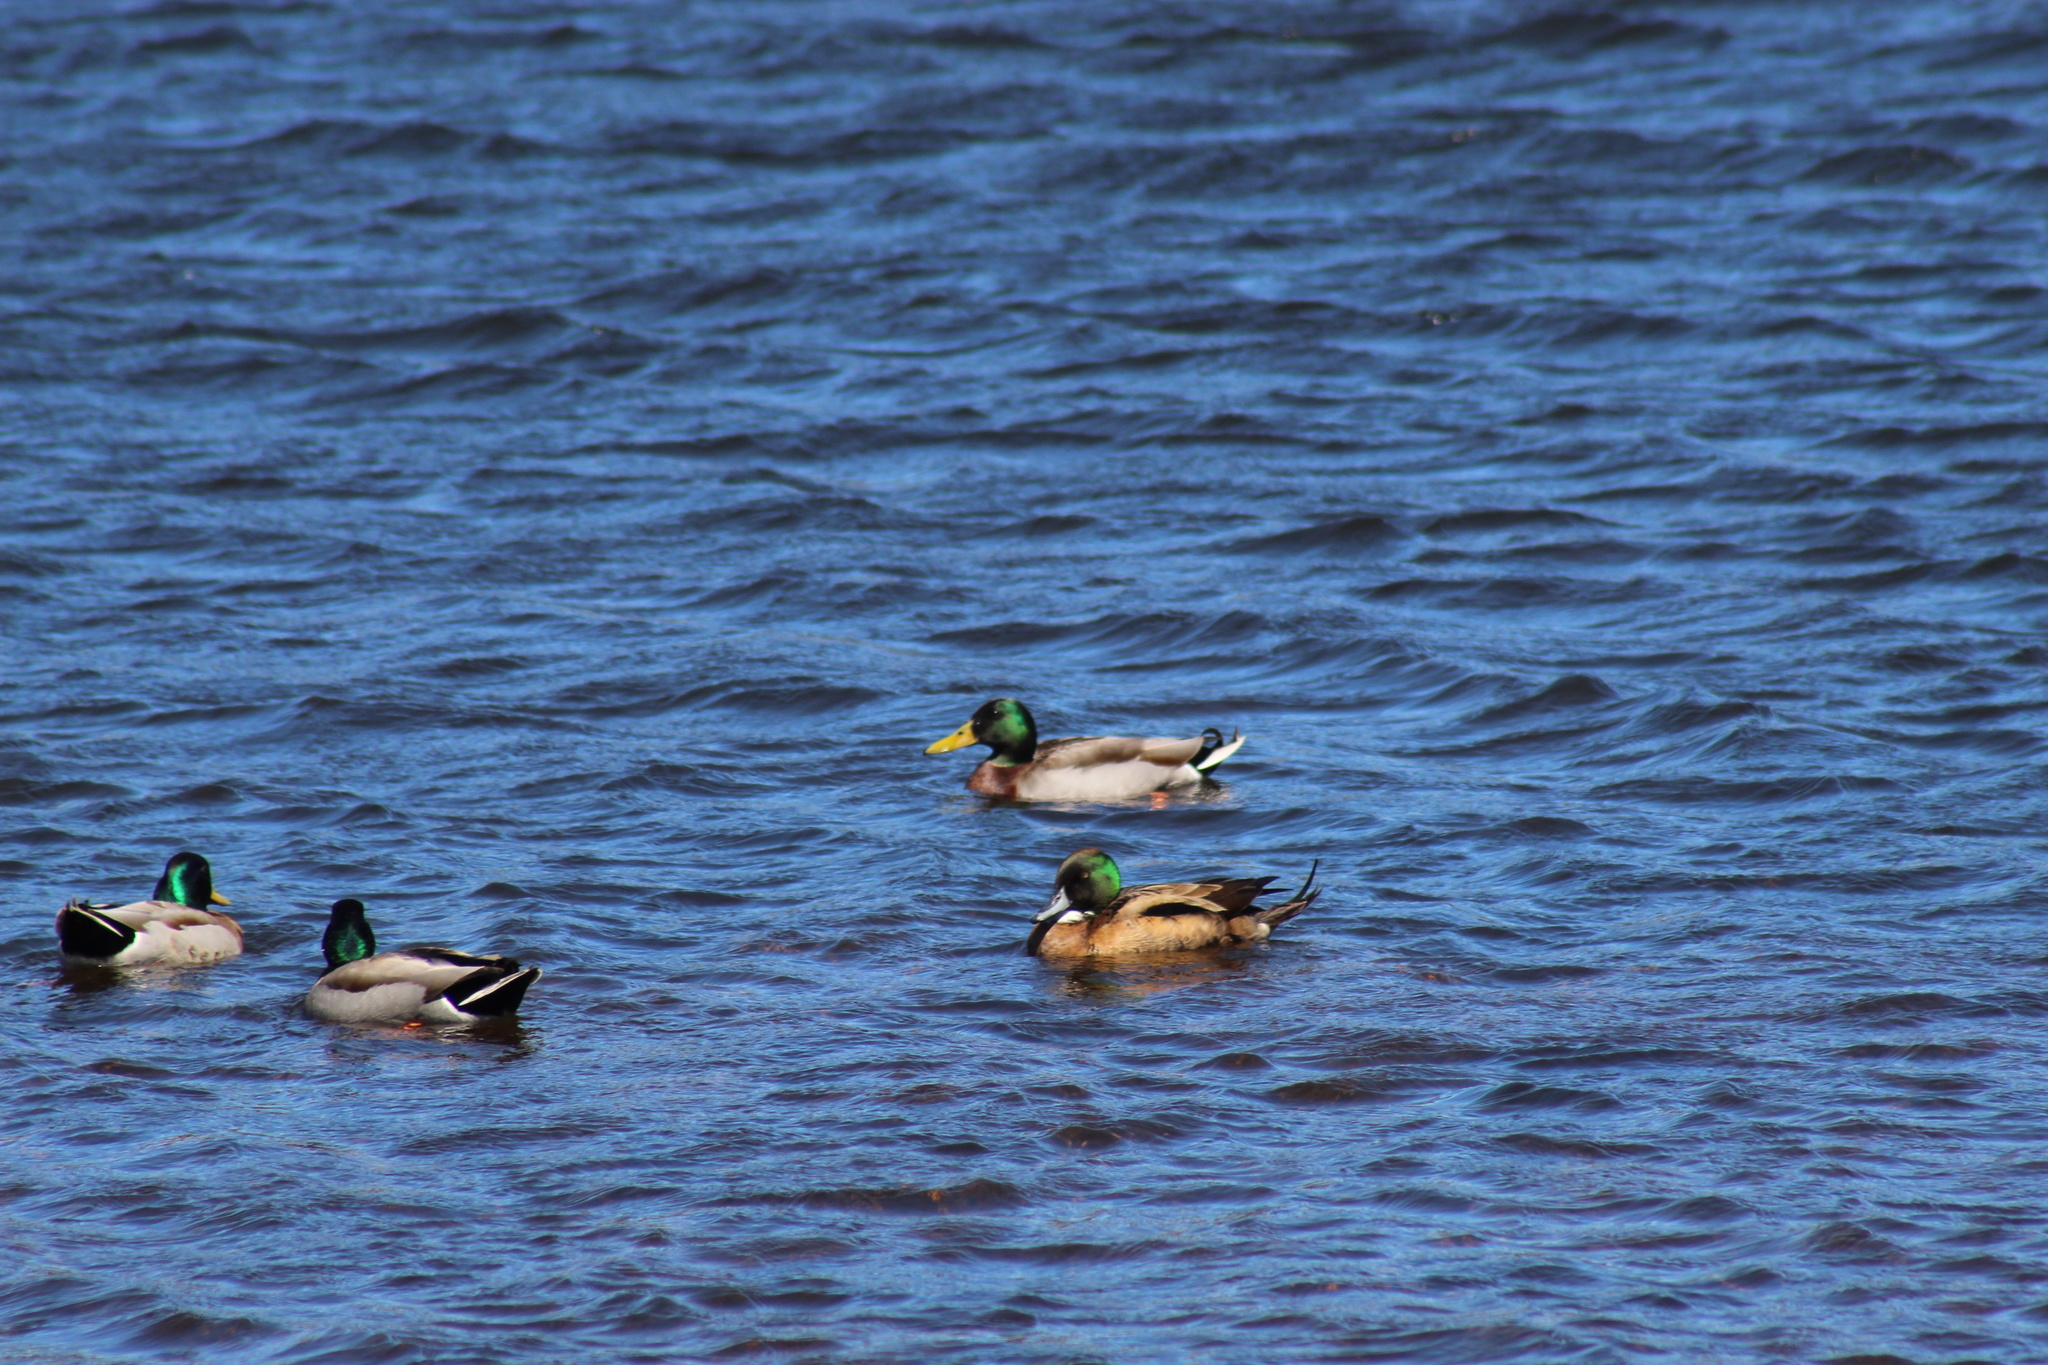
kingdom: Animalia
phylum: Chordata
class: Aves
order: Anseriformes
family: Anatidae
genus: Anas
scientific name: Anas platyrhynchos
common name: Mallard
